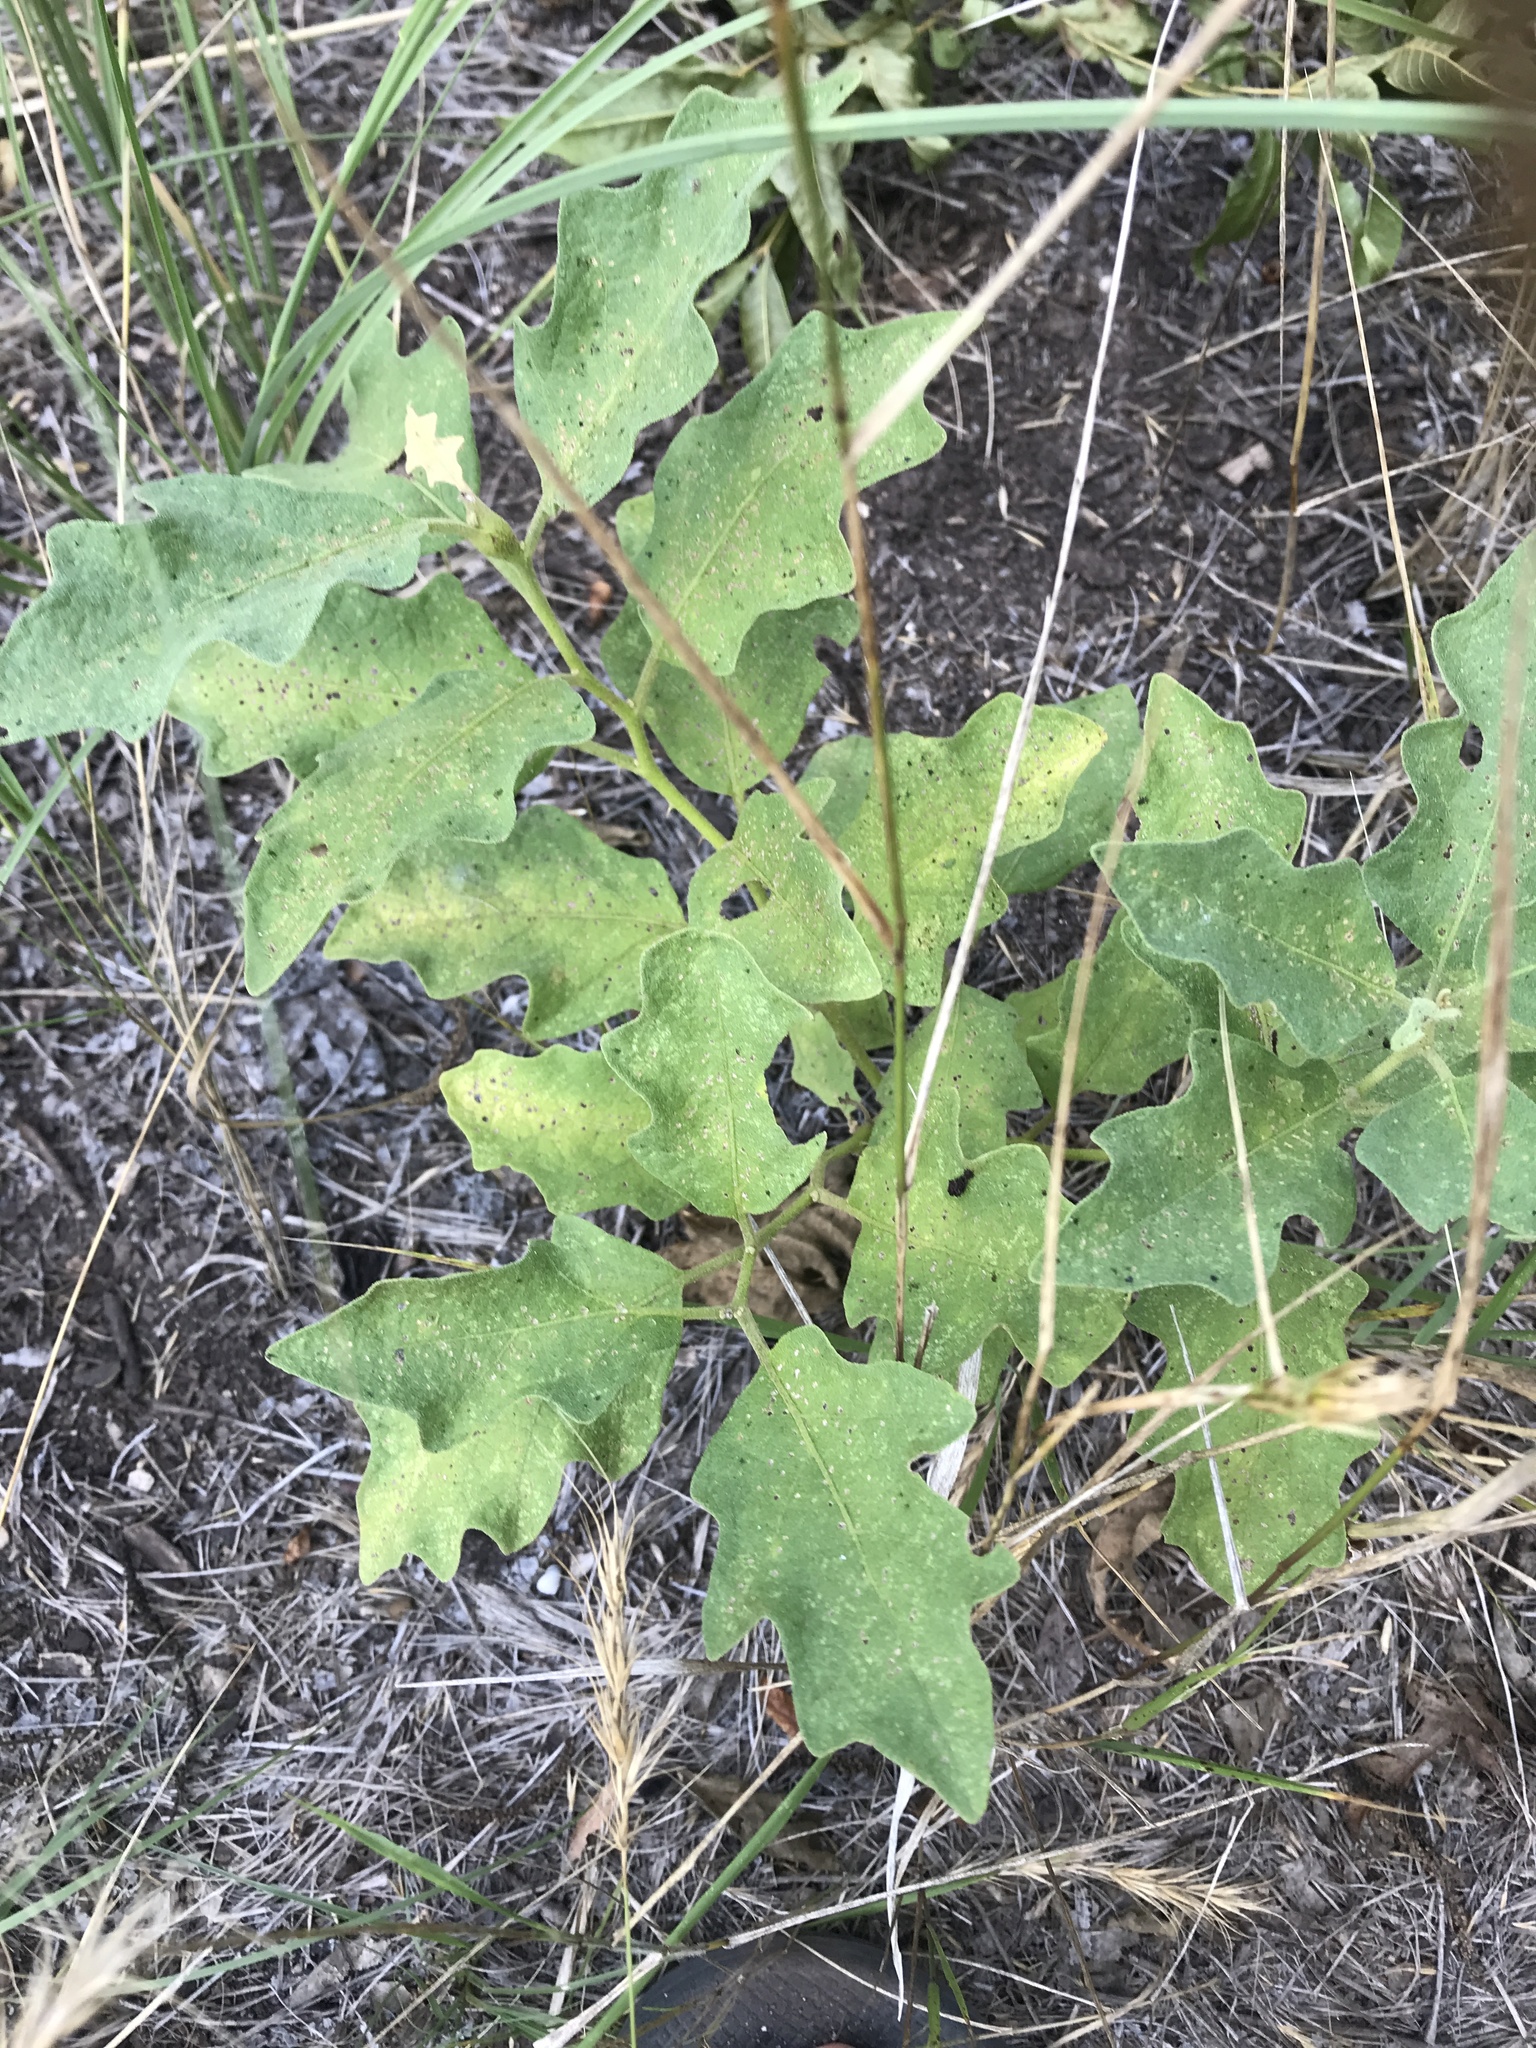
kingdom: Plantae
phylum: Tracheophyta
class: Magnoliopsida
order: Solanales
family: Solanaceae
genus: Solanum
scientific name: Solanum dimidiatum
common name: Carolina horse-nettle
